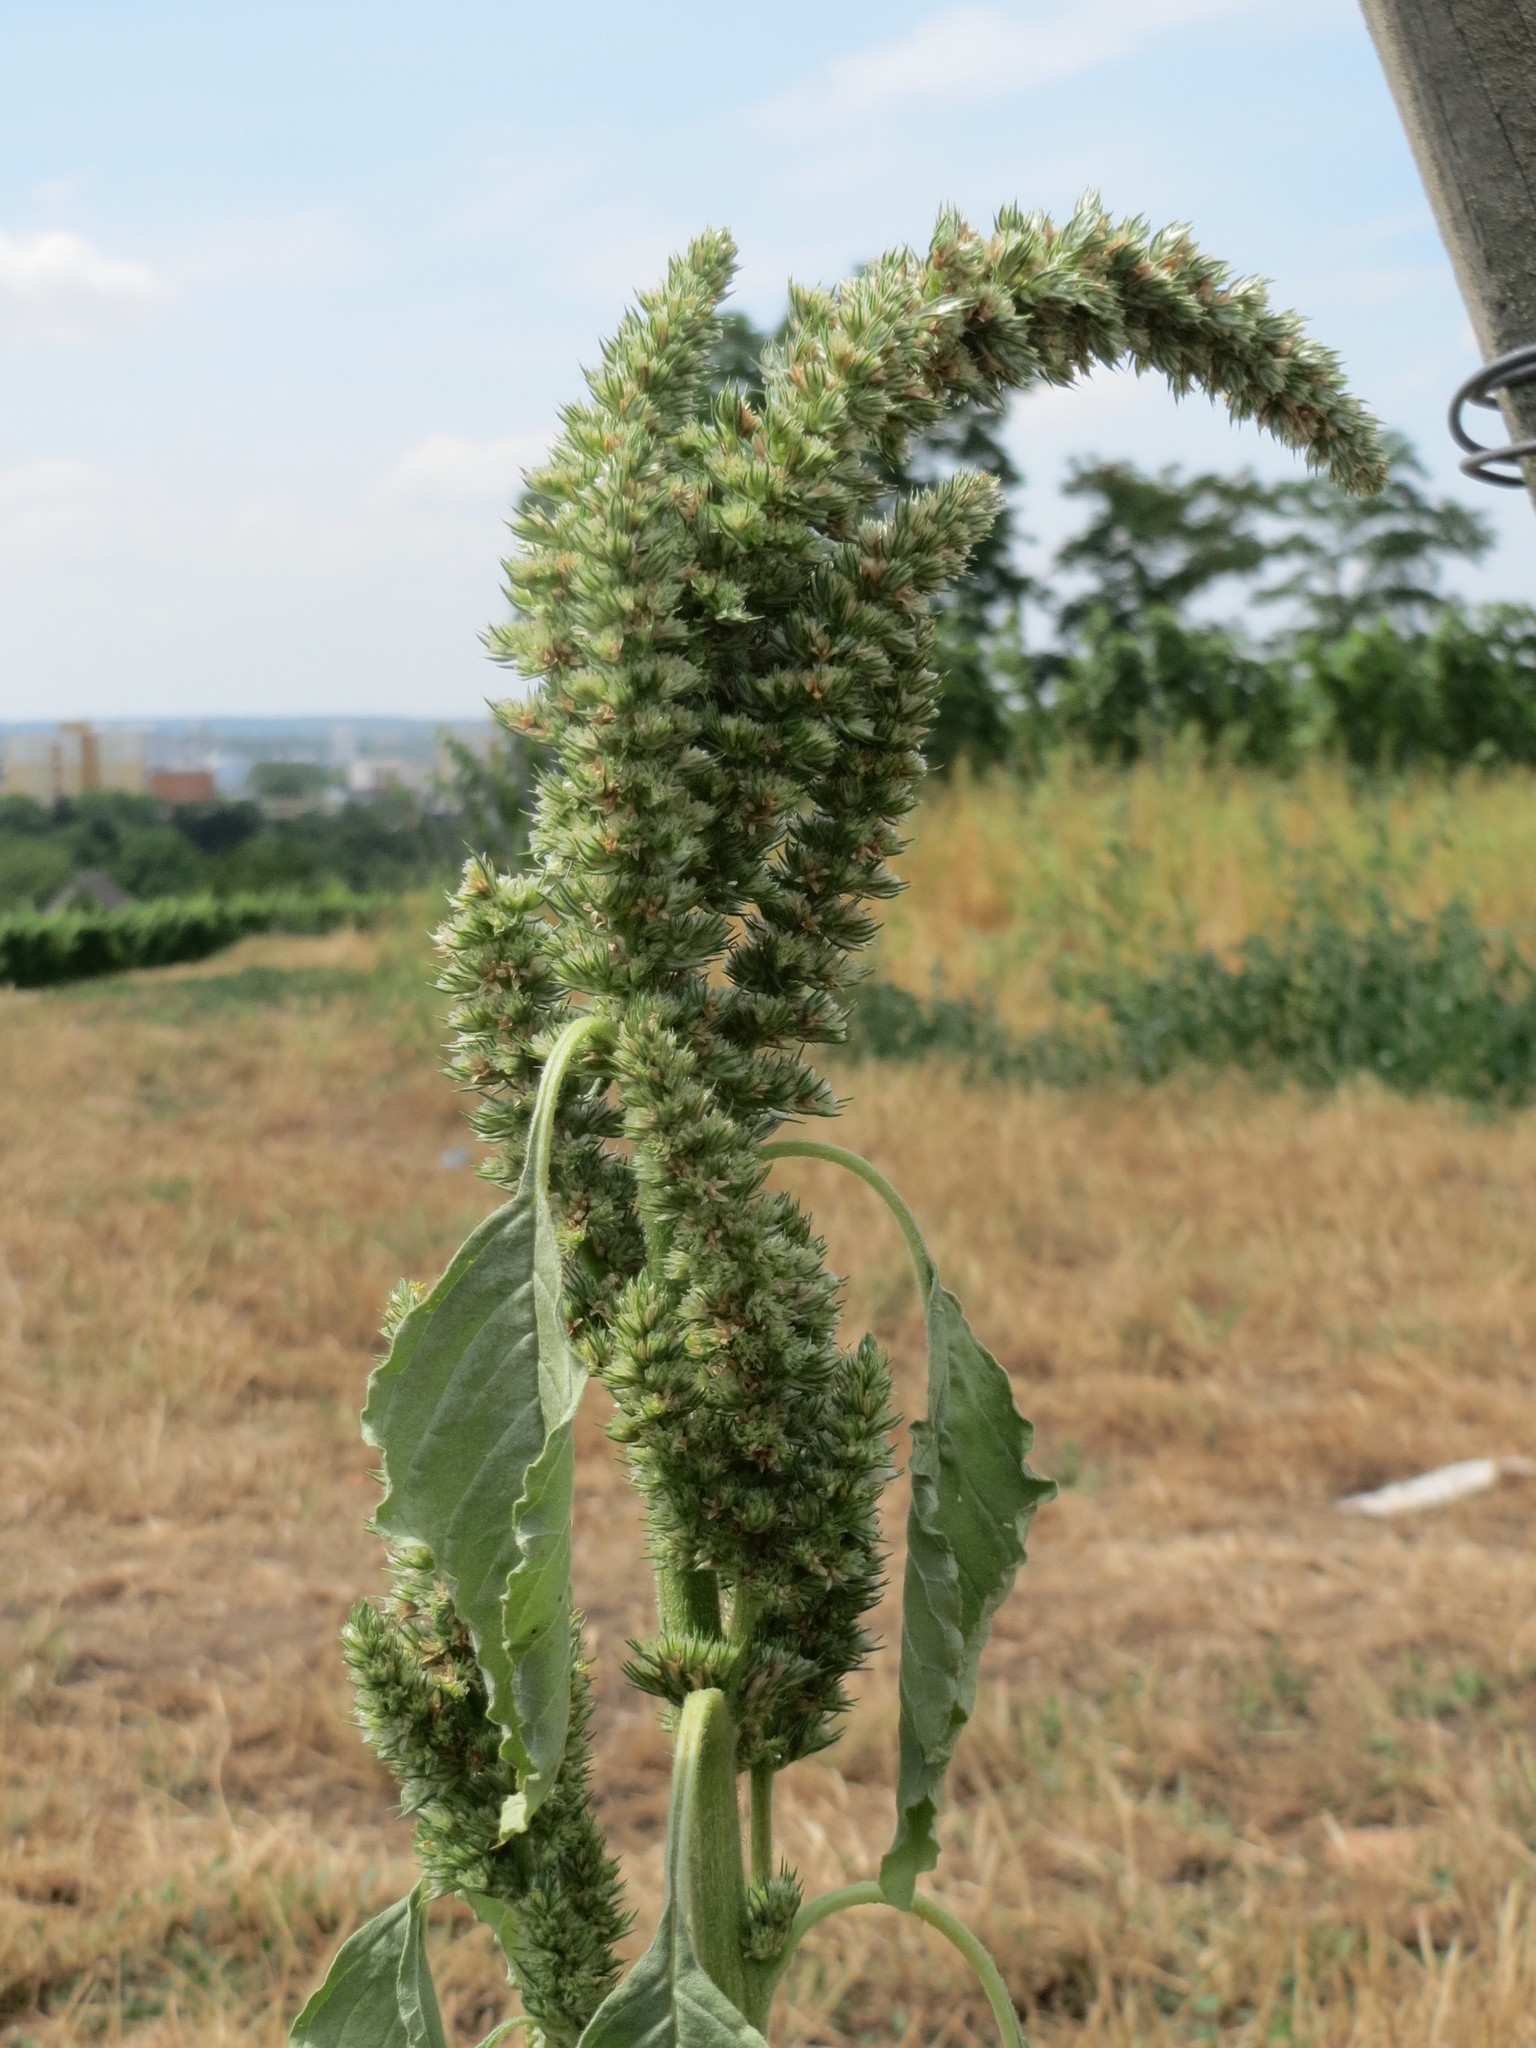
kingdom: Plantae
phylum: Tracheophyta
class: Magnoliopsida
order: Caryophyllales
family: Amaranthaceae
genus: Amaranthus
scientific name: Amaranthus retroflexus
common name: Redroot amaranth
